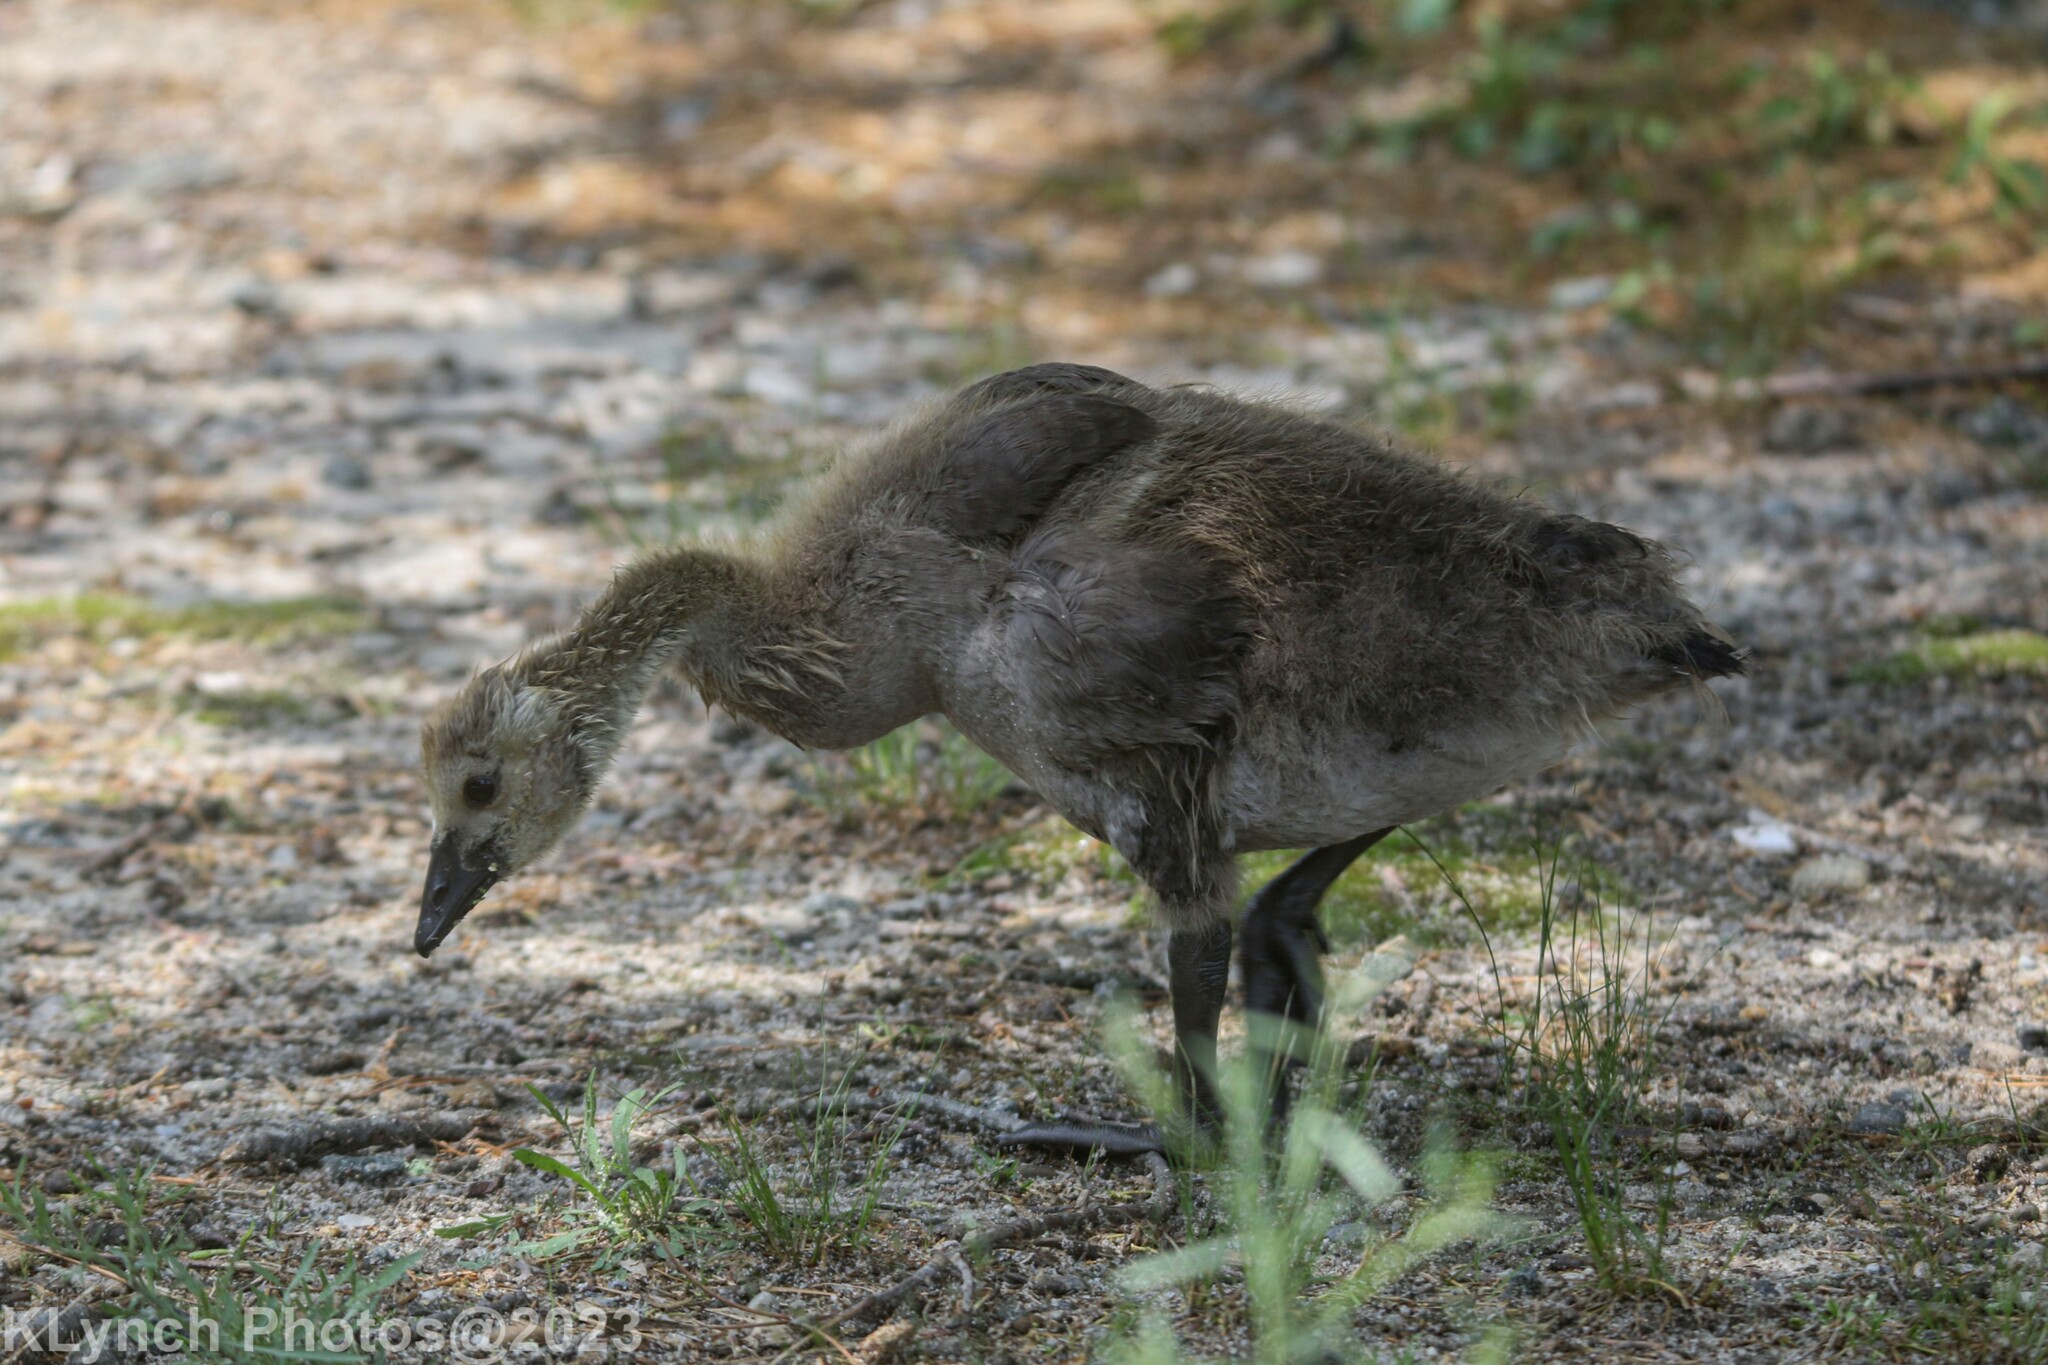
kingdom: Animalia
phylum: Chordata
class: Aves
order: Anseriformes
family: Anatidae
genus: Branta
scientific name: Branta canadensis
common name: Canada goose
